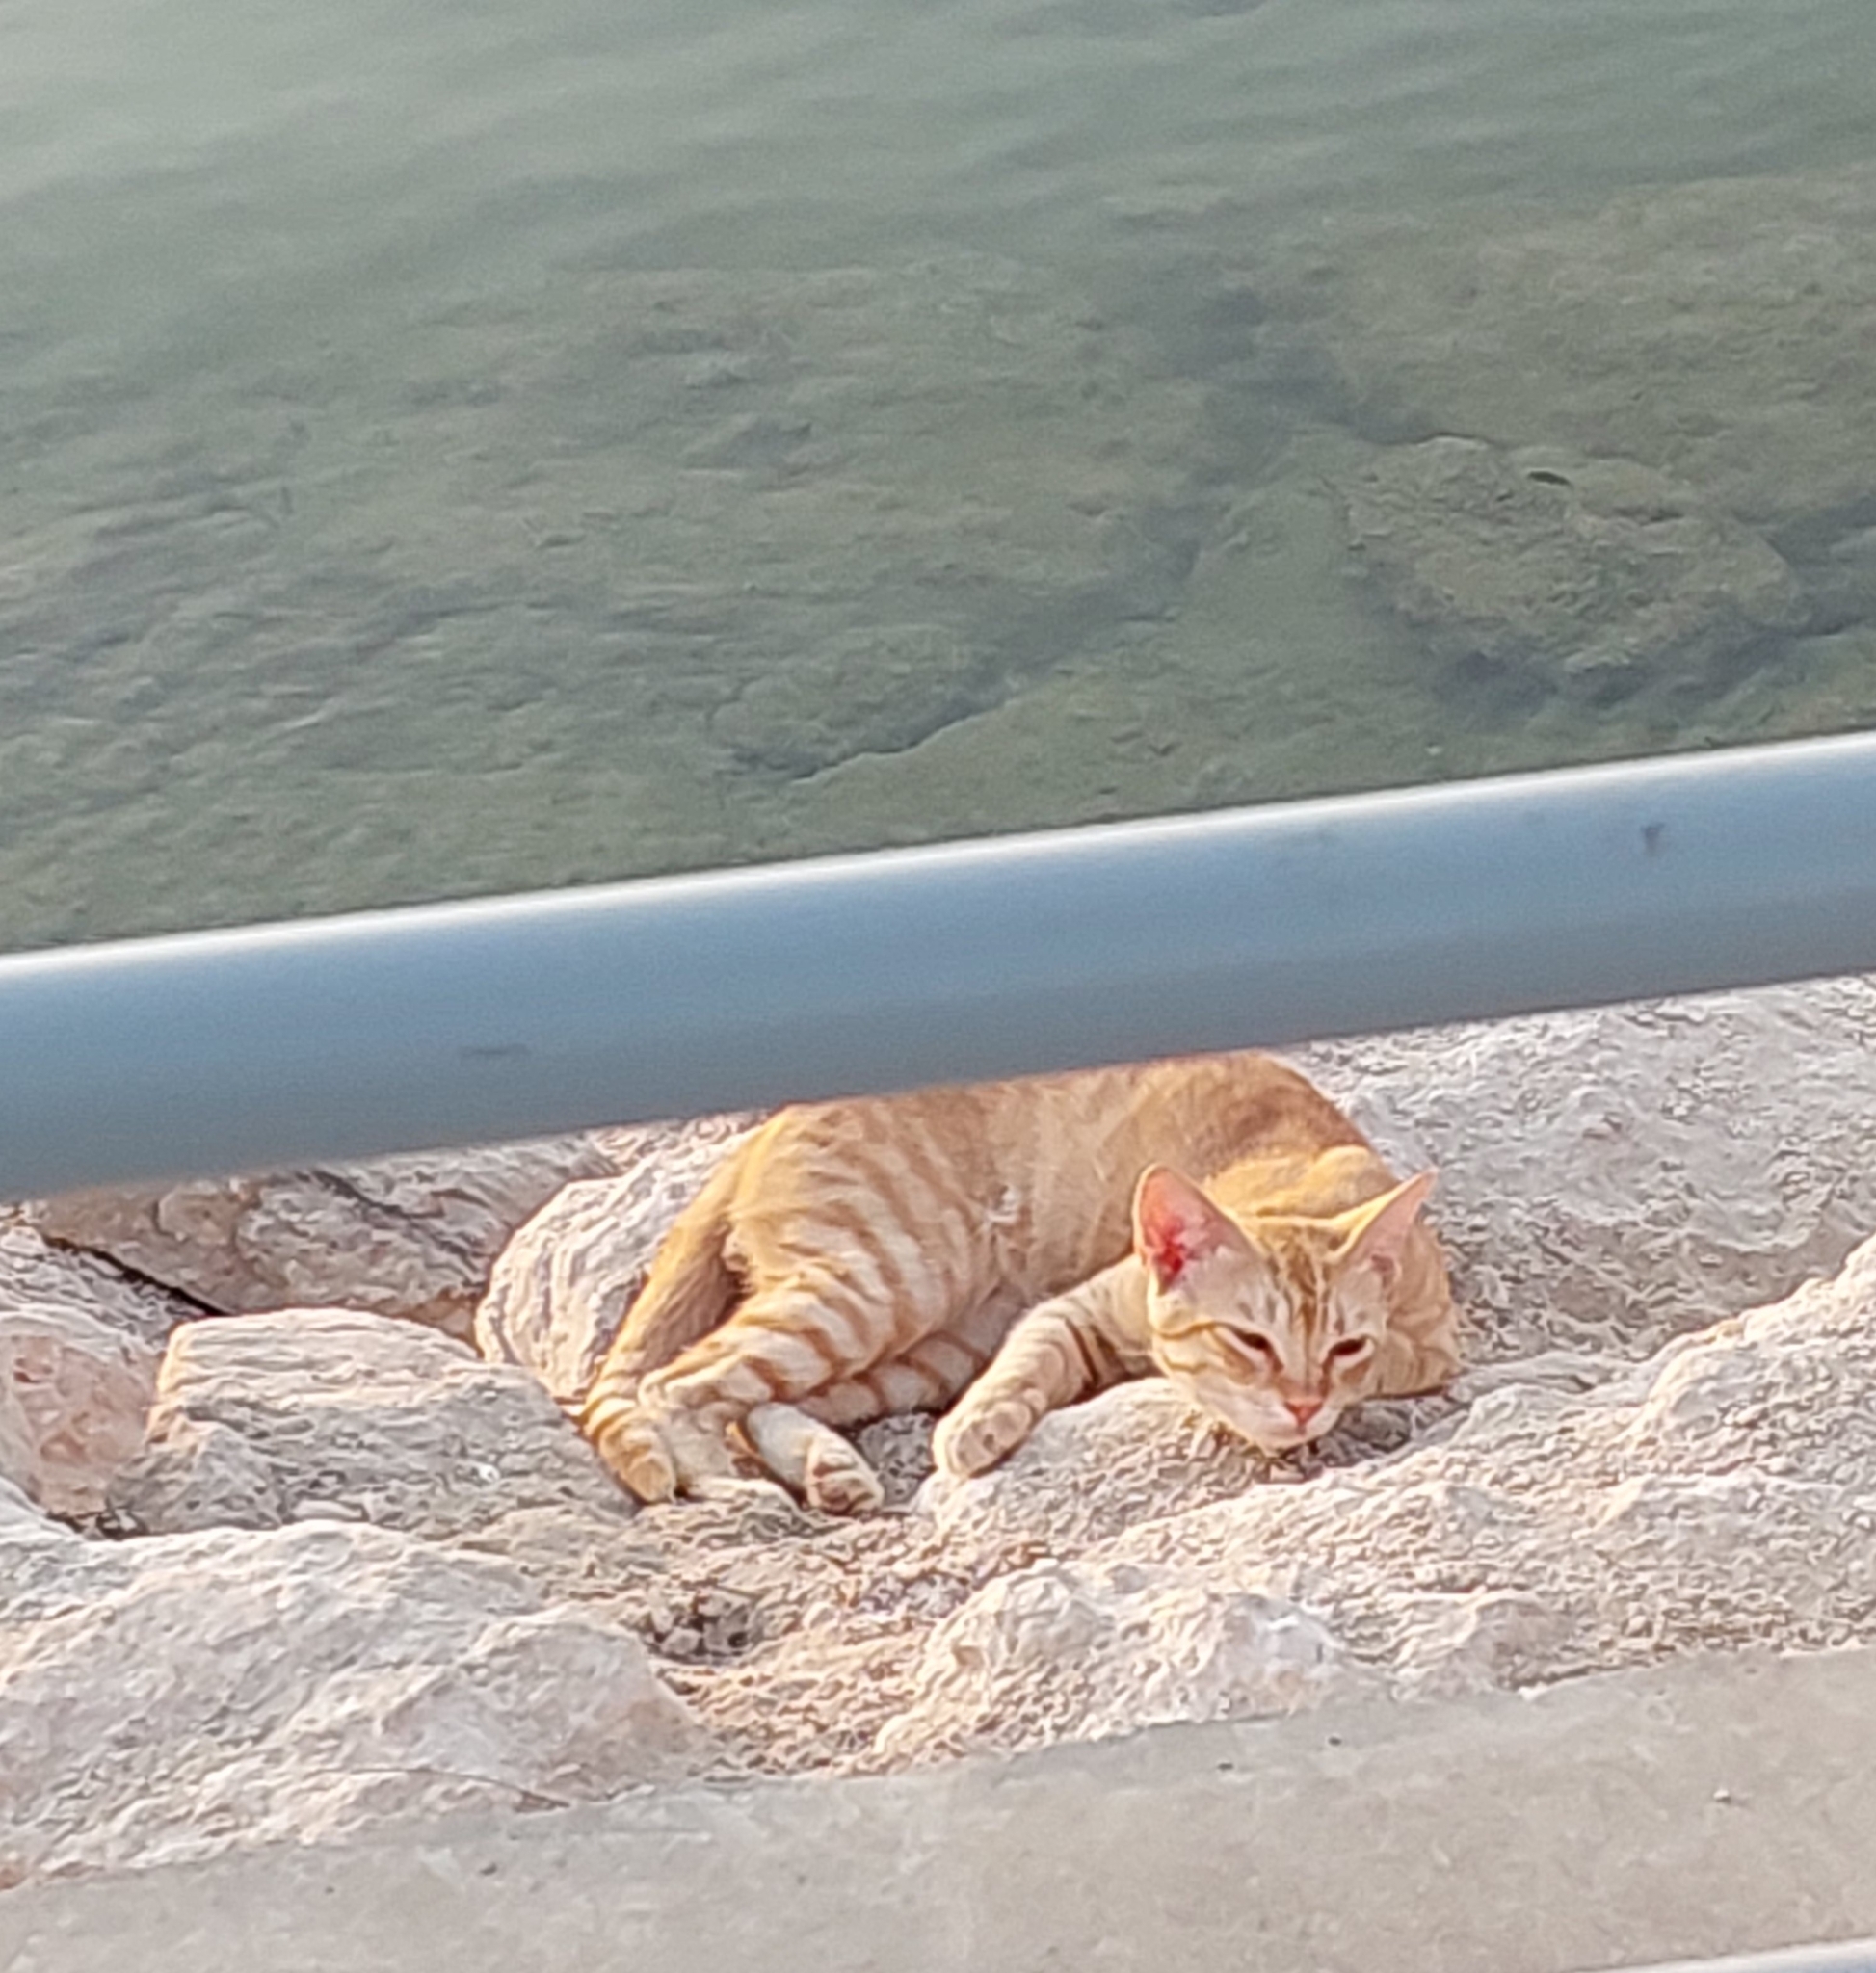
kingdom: Animalia
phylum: Chordata
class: Mammalia
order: Carnivora
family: Felidae
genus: Felis
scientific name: Felis catus
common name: Domestic cat
